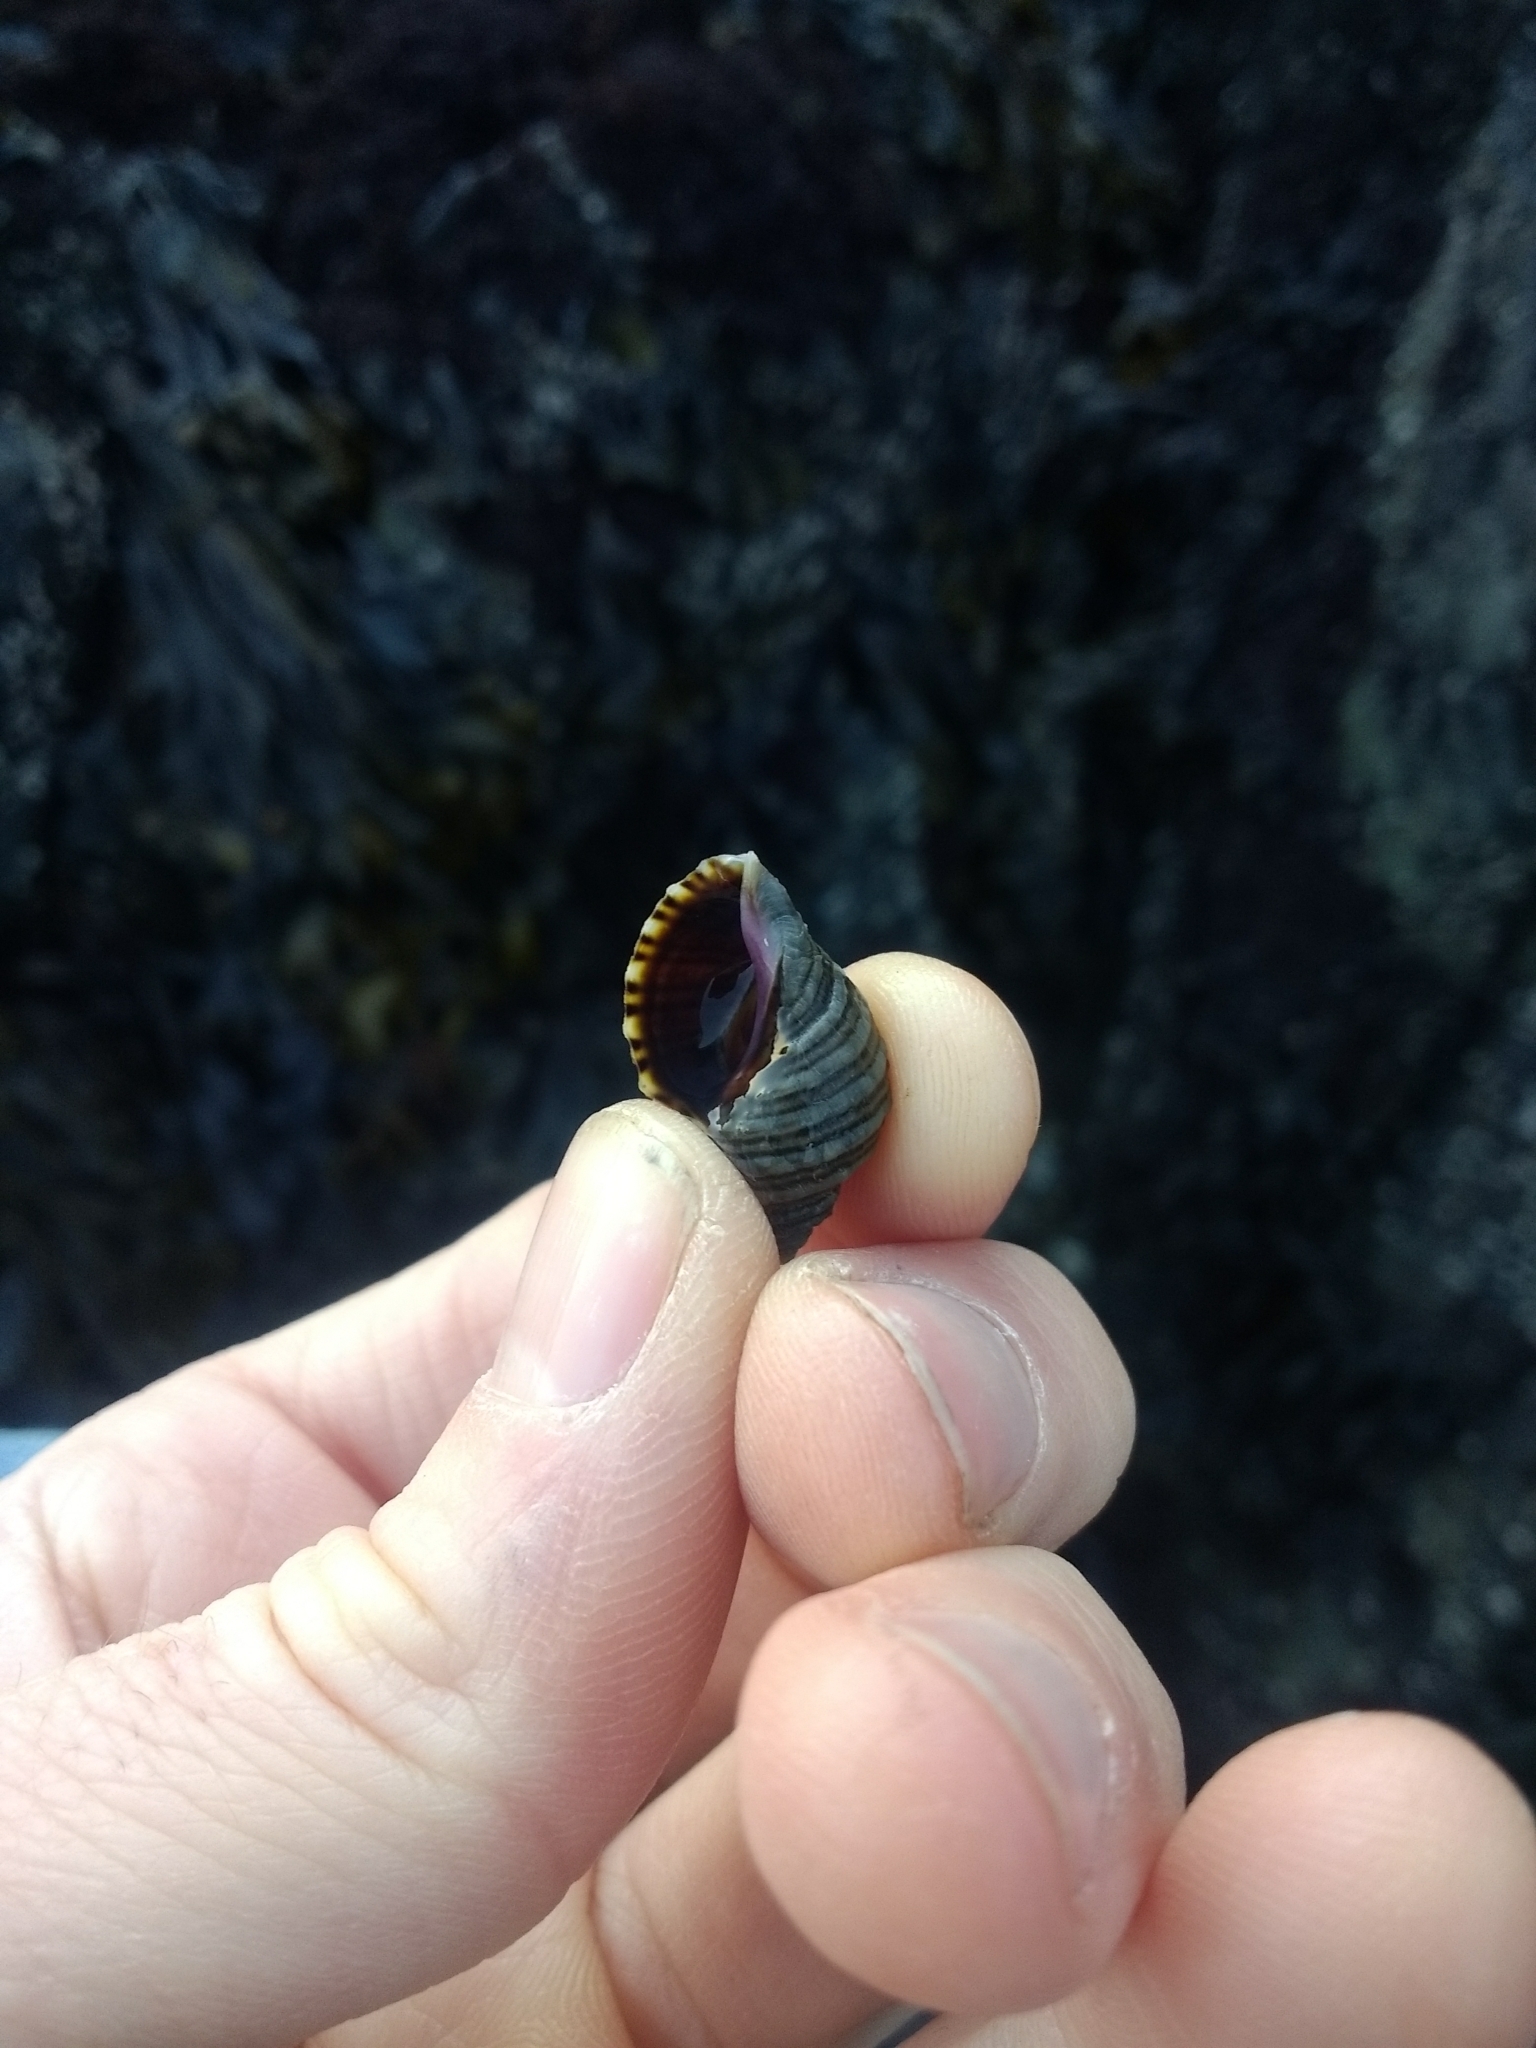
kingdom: Animalia
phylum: Mollusca
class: Gastropoda
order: Neogastropoda
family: Muricidae
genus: Nucella
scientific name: Nucella ostrina
